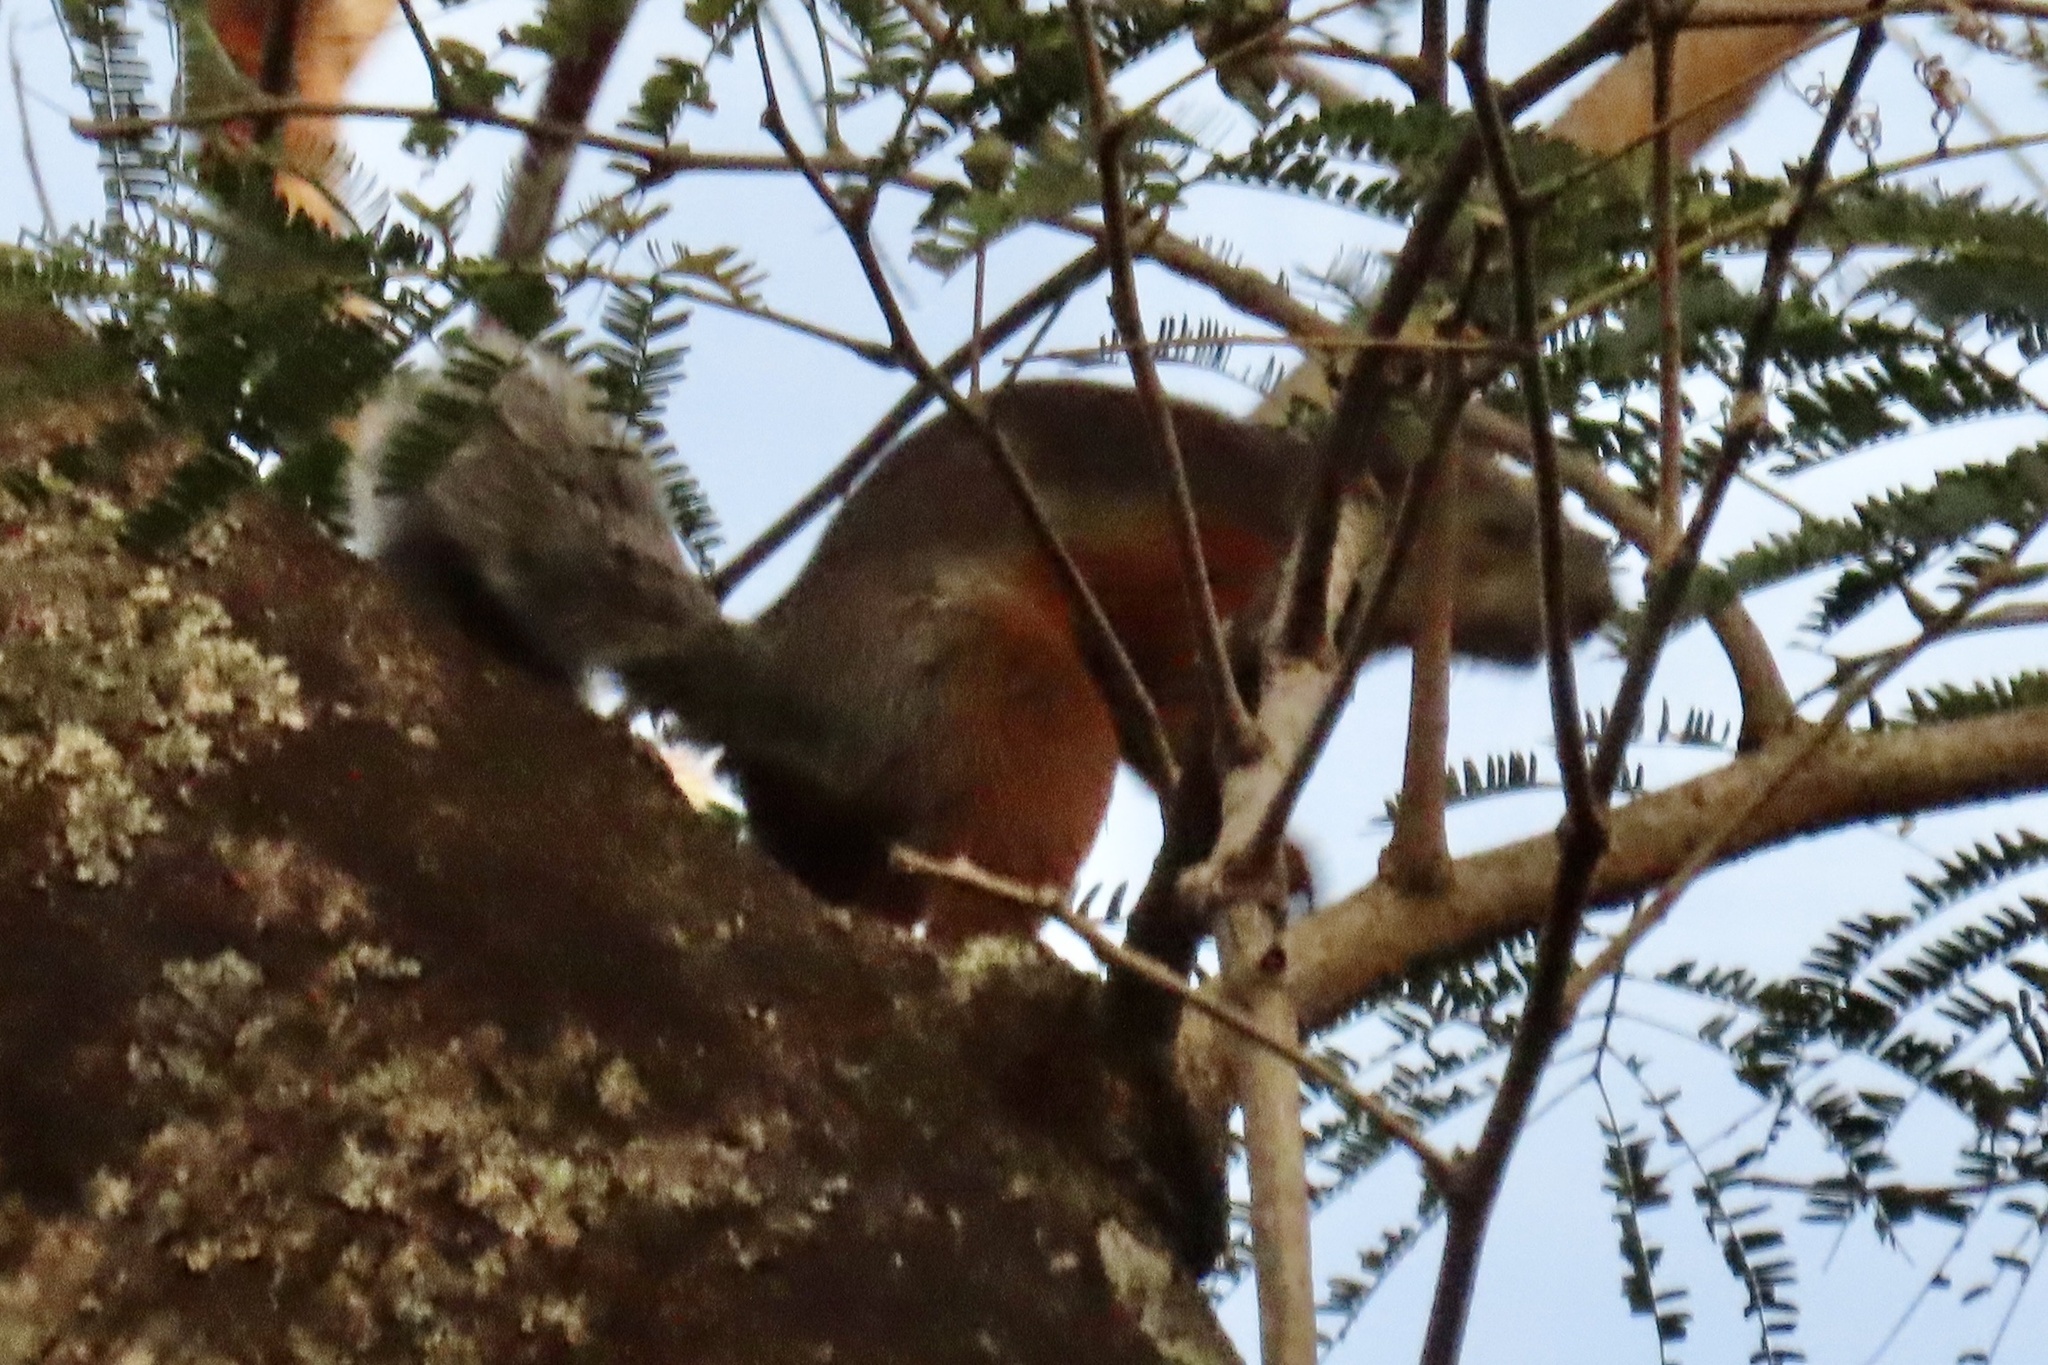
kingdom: Animalia
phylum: Chordata
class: Mammalia
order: Rodentia
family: Sciuridae
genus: Sciurus
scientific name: Sciurus variegatoides
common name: Variegated squirrel
